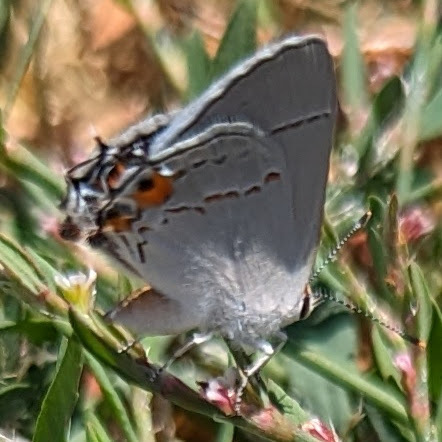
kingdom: Animalia
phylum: Arthropoda
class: Insecta
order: Lepidoptera
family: Lycaenidae
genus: Strymon
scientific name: Strymon melinus
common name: Gray hairstreak
